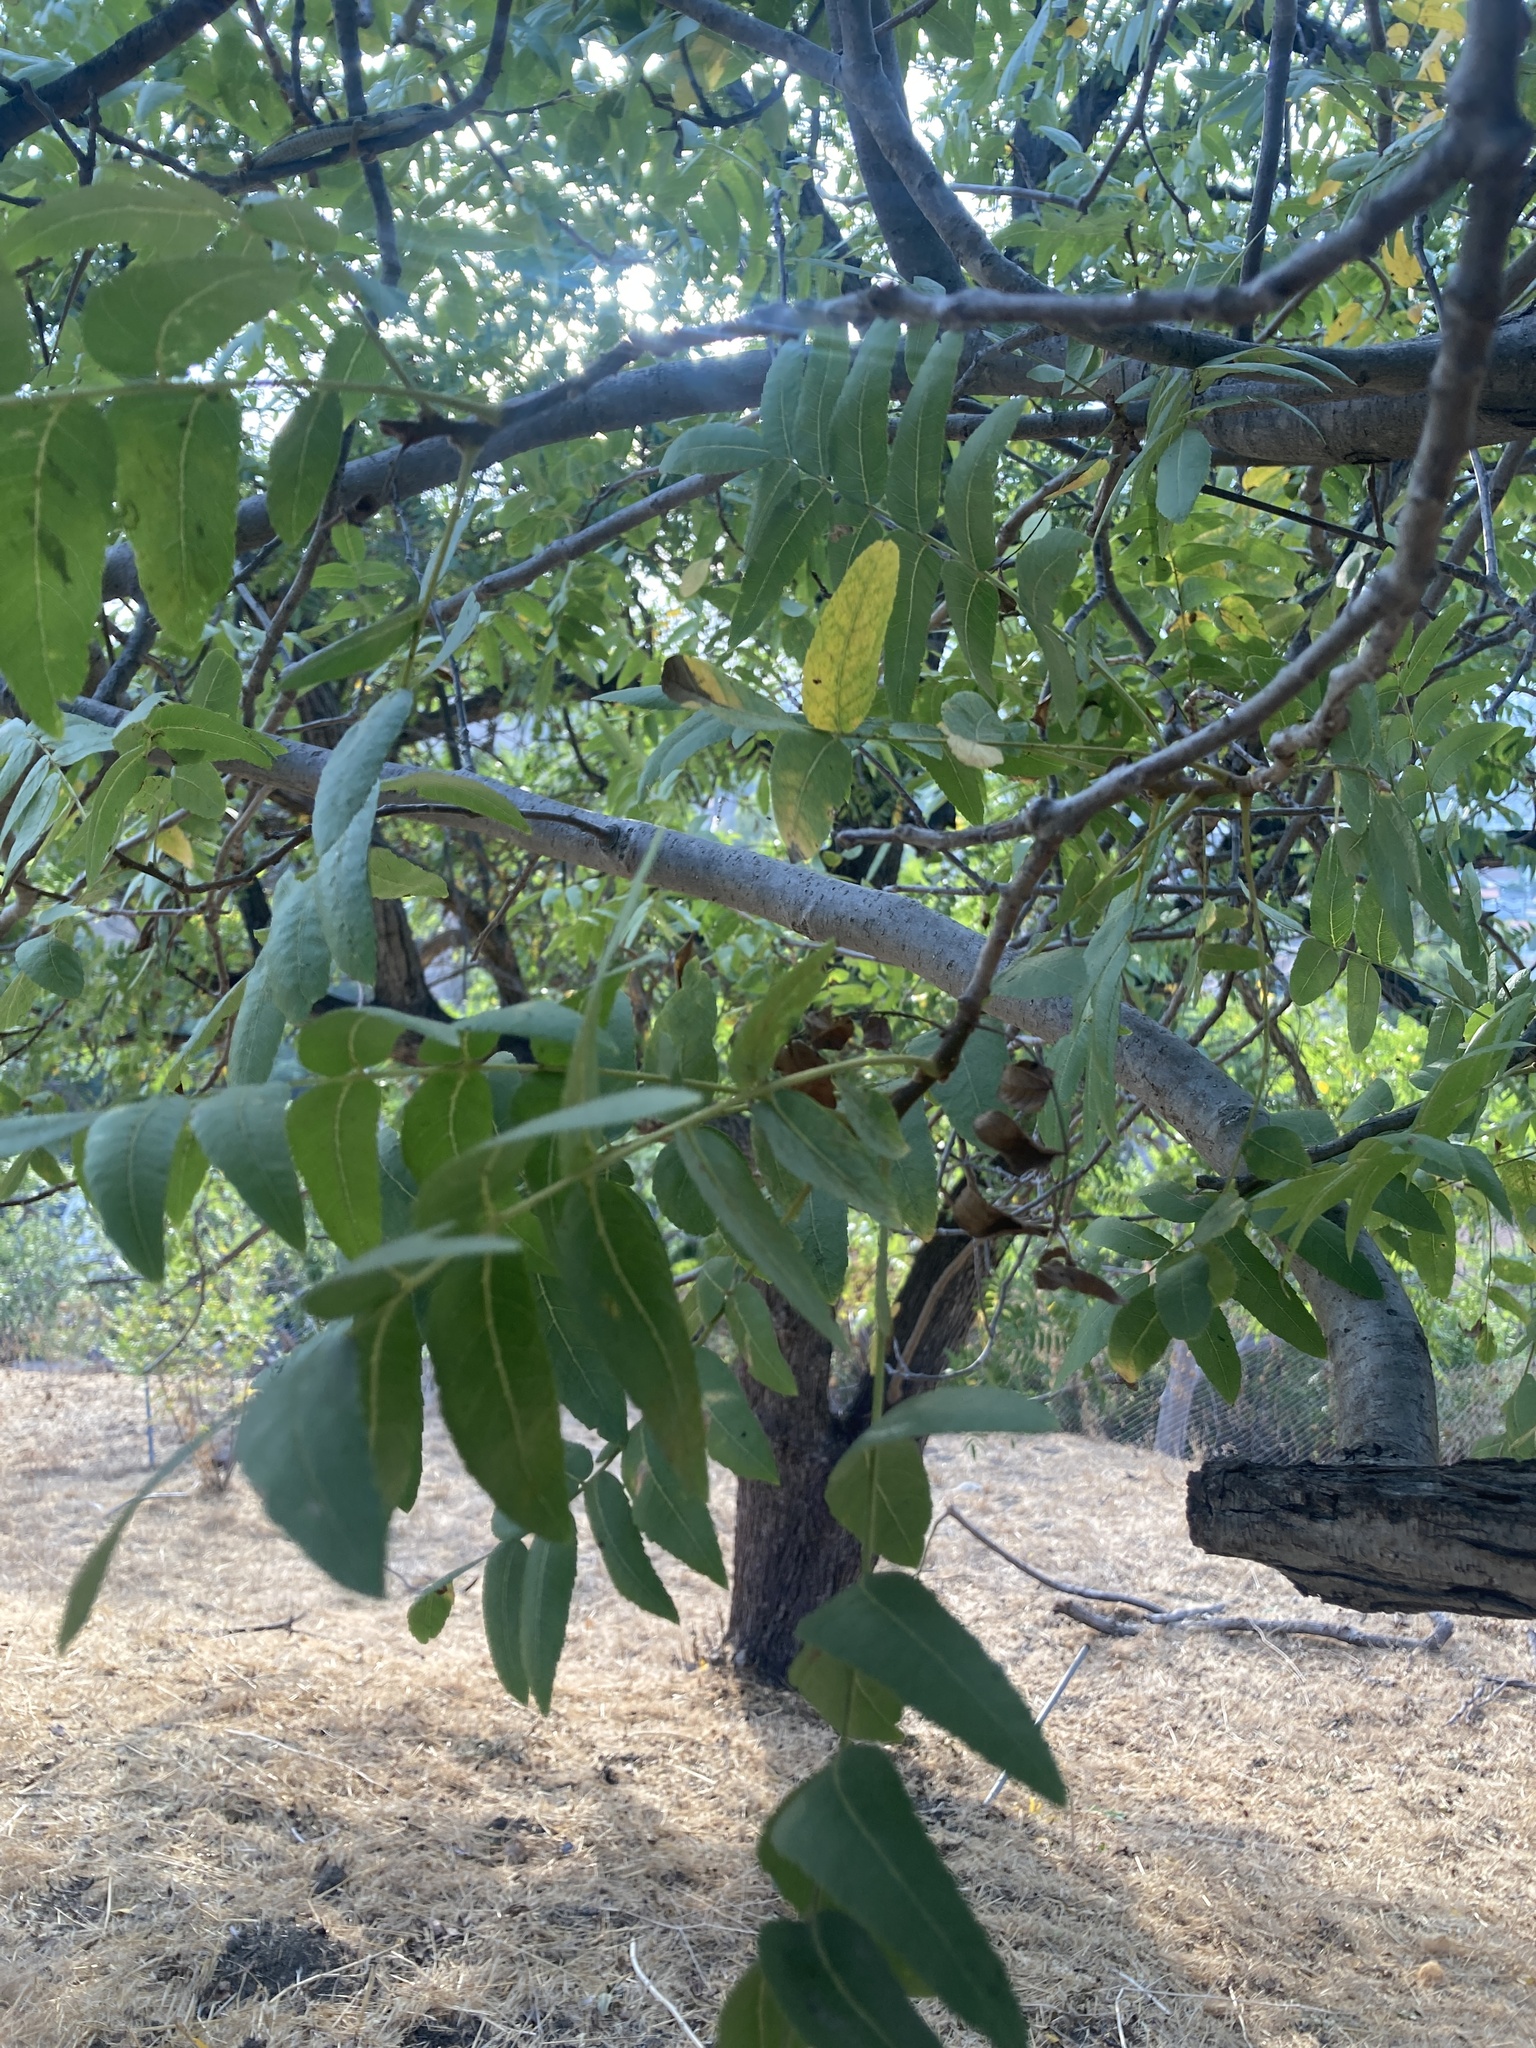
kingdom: Plantae
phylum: Tracheophyta
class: Magnoliopsida
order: Fagales
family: Juglandaceae
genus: Juglans
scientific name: Juglans californica
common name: Southern california black walnut
